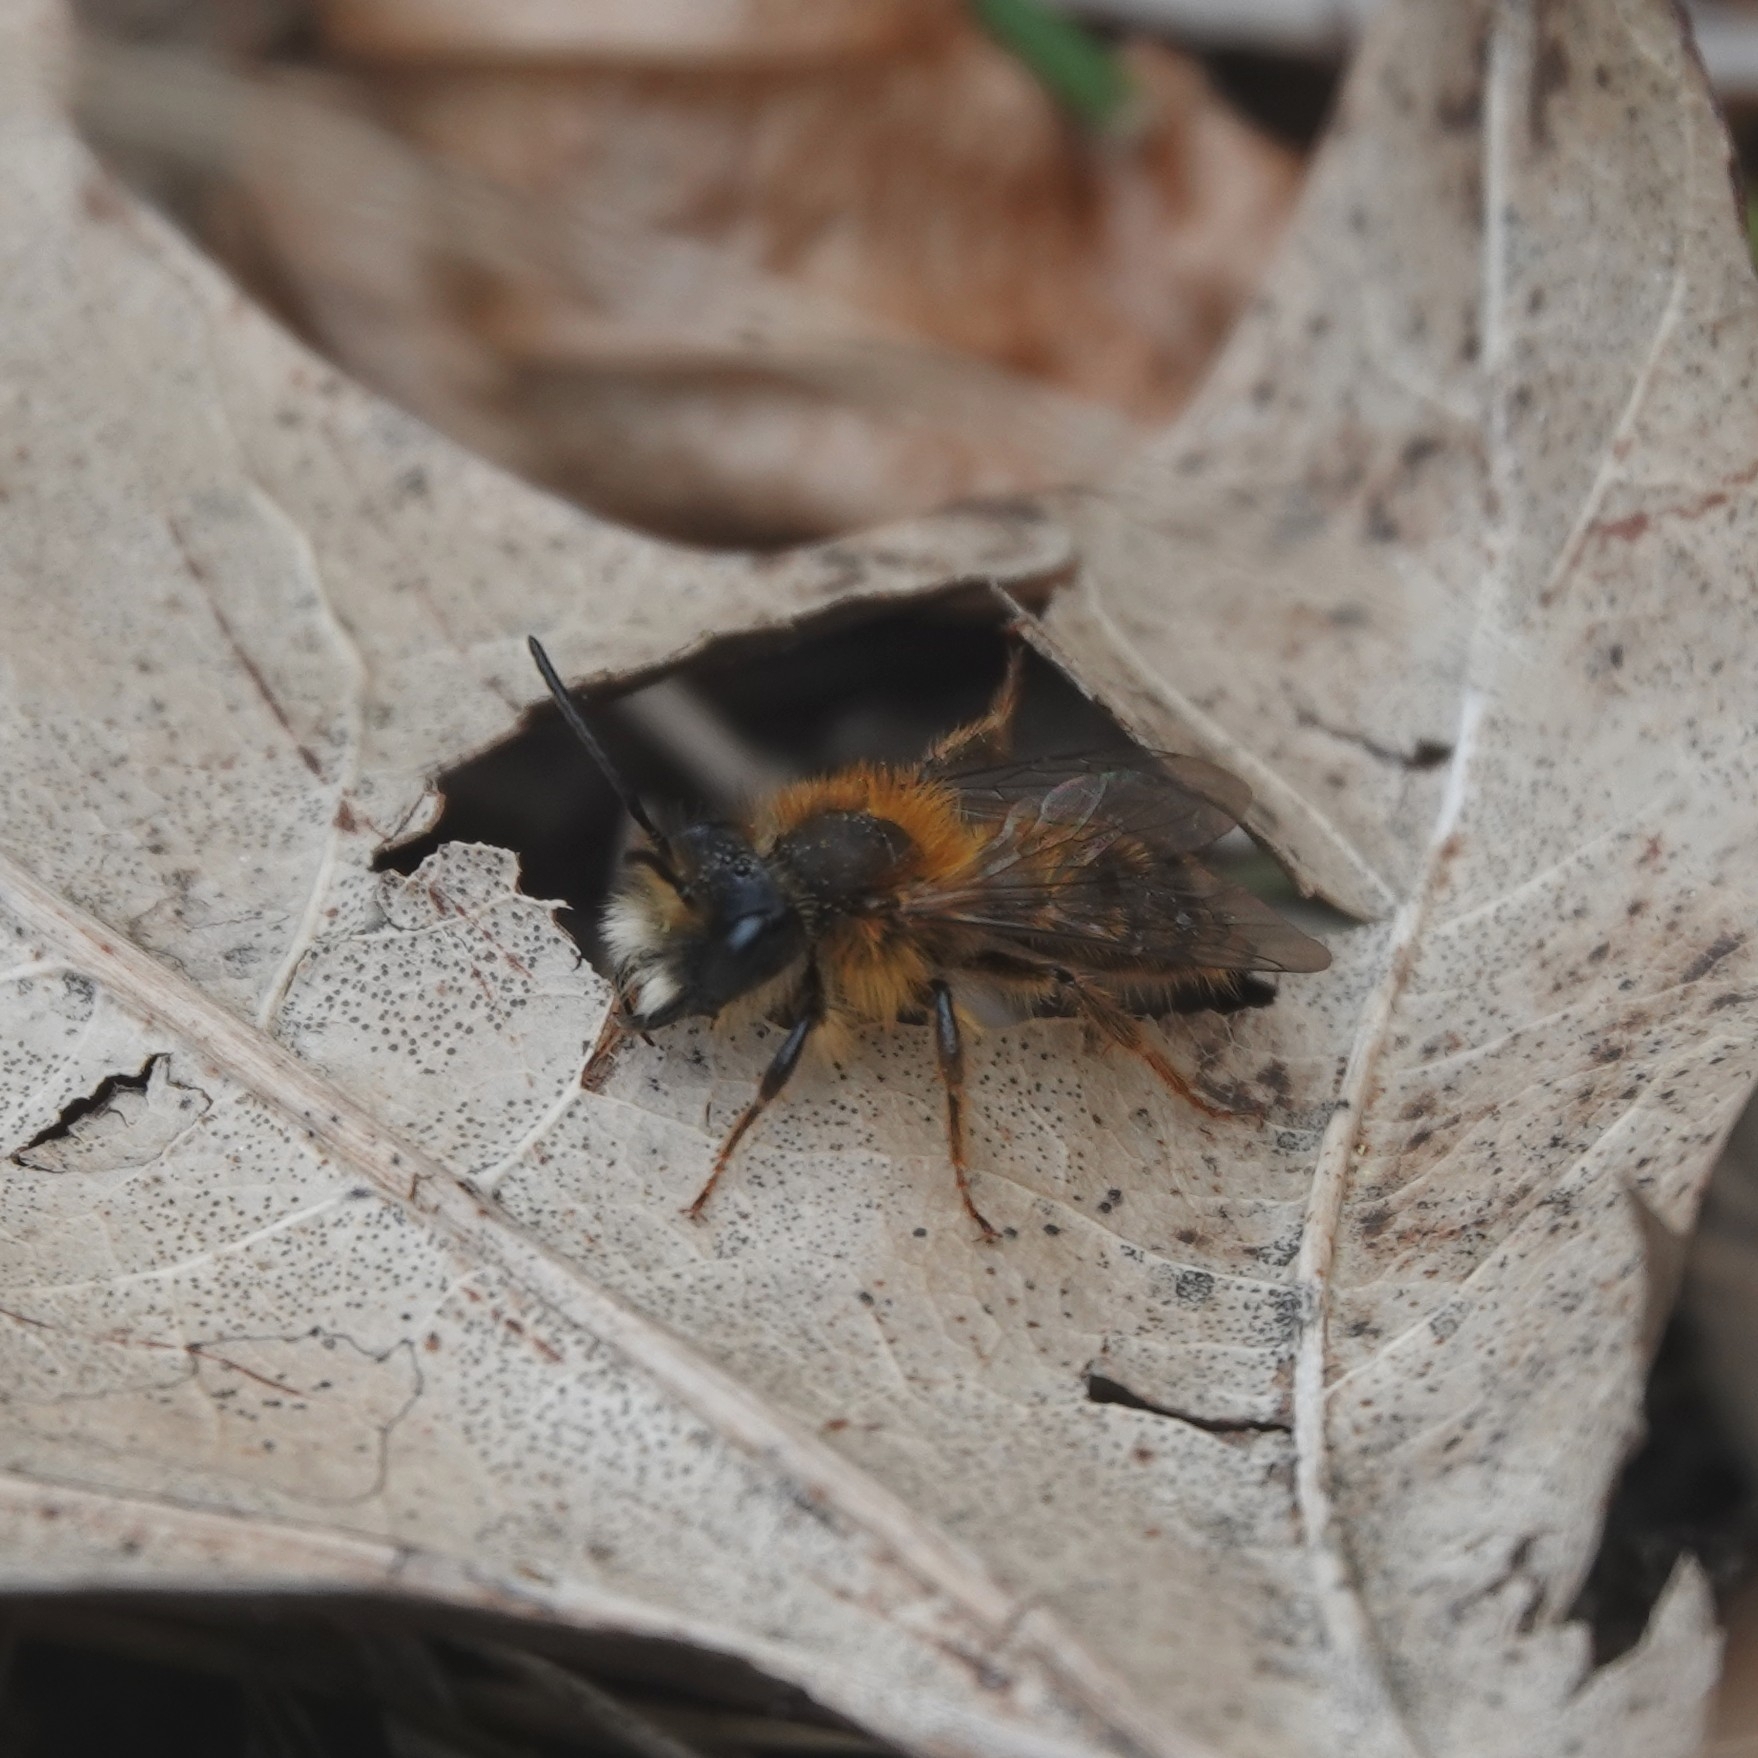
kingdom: Animalia
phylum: Arthropoda
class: Insecta
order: Hymenoptera
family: Andrenidae
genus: Andrena
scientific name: Andrena fulva
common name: Tawny mining bee
